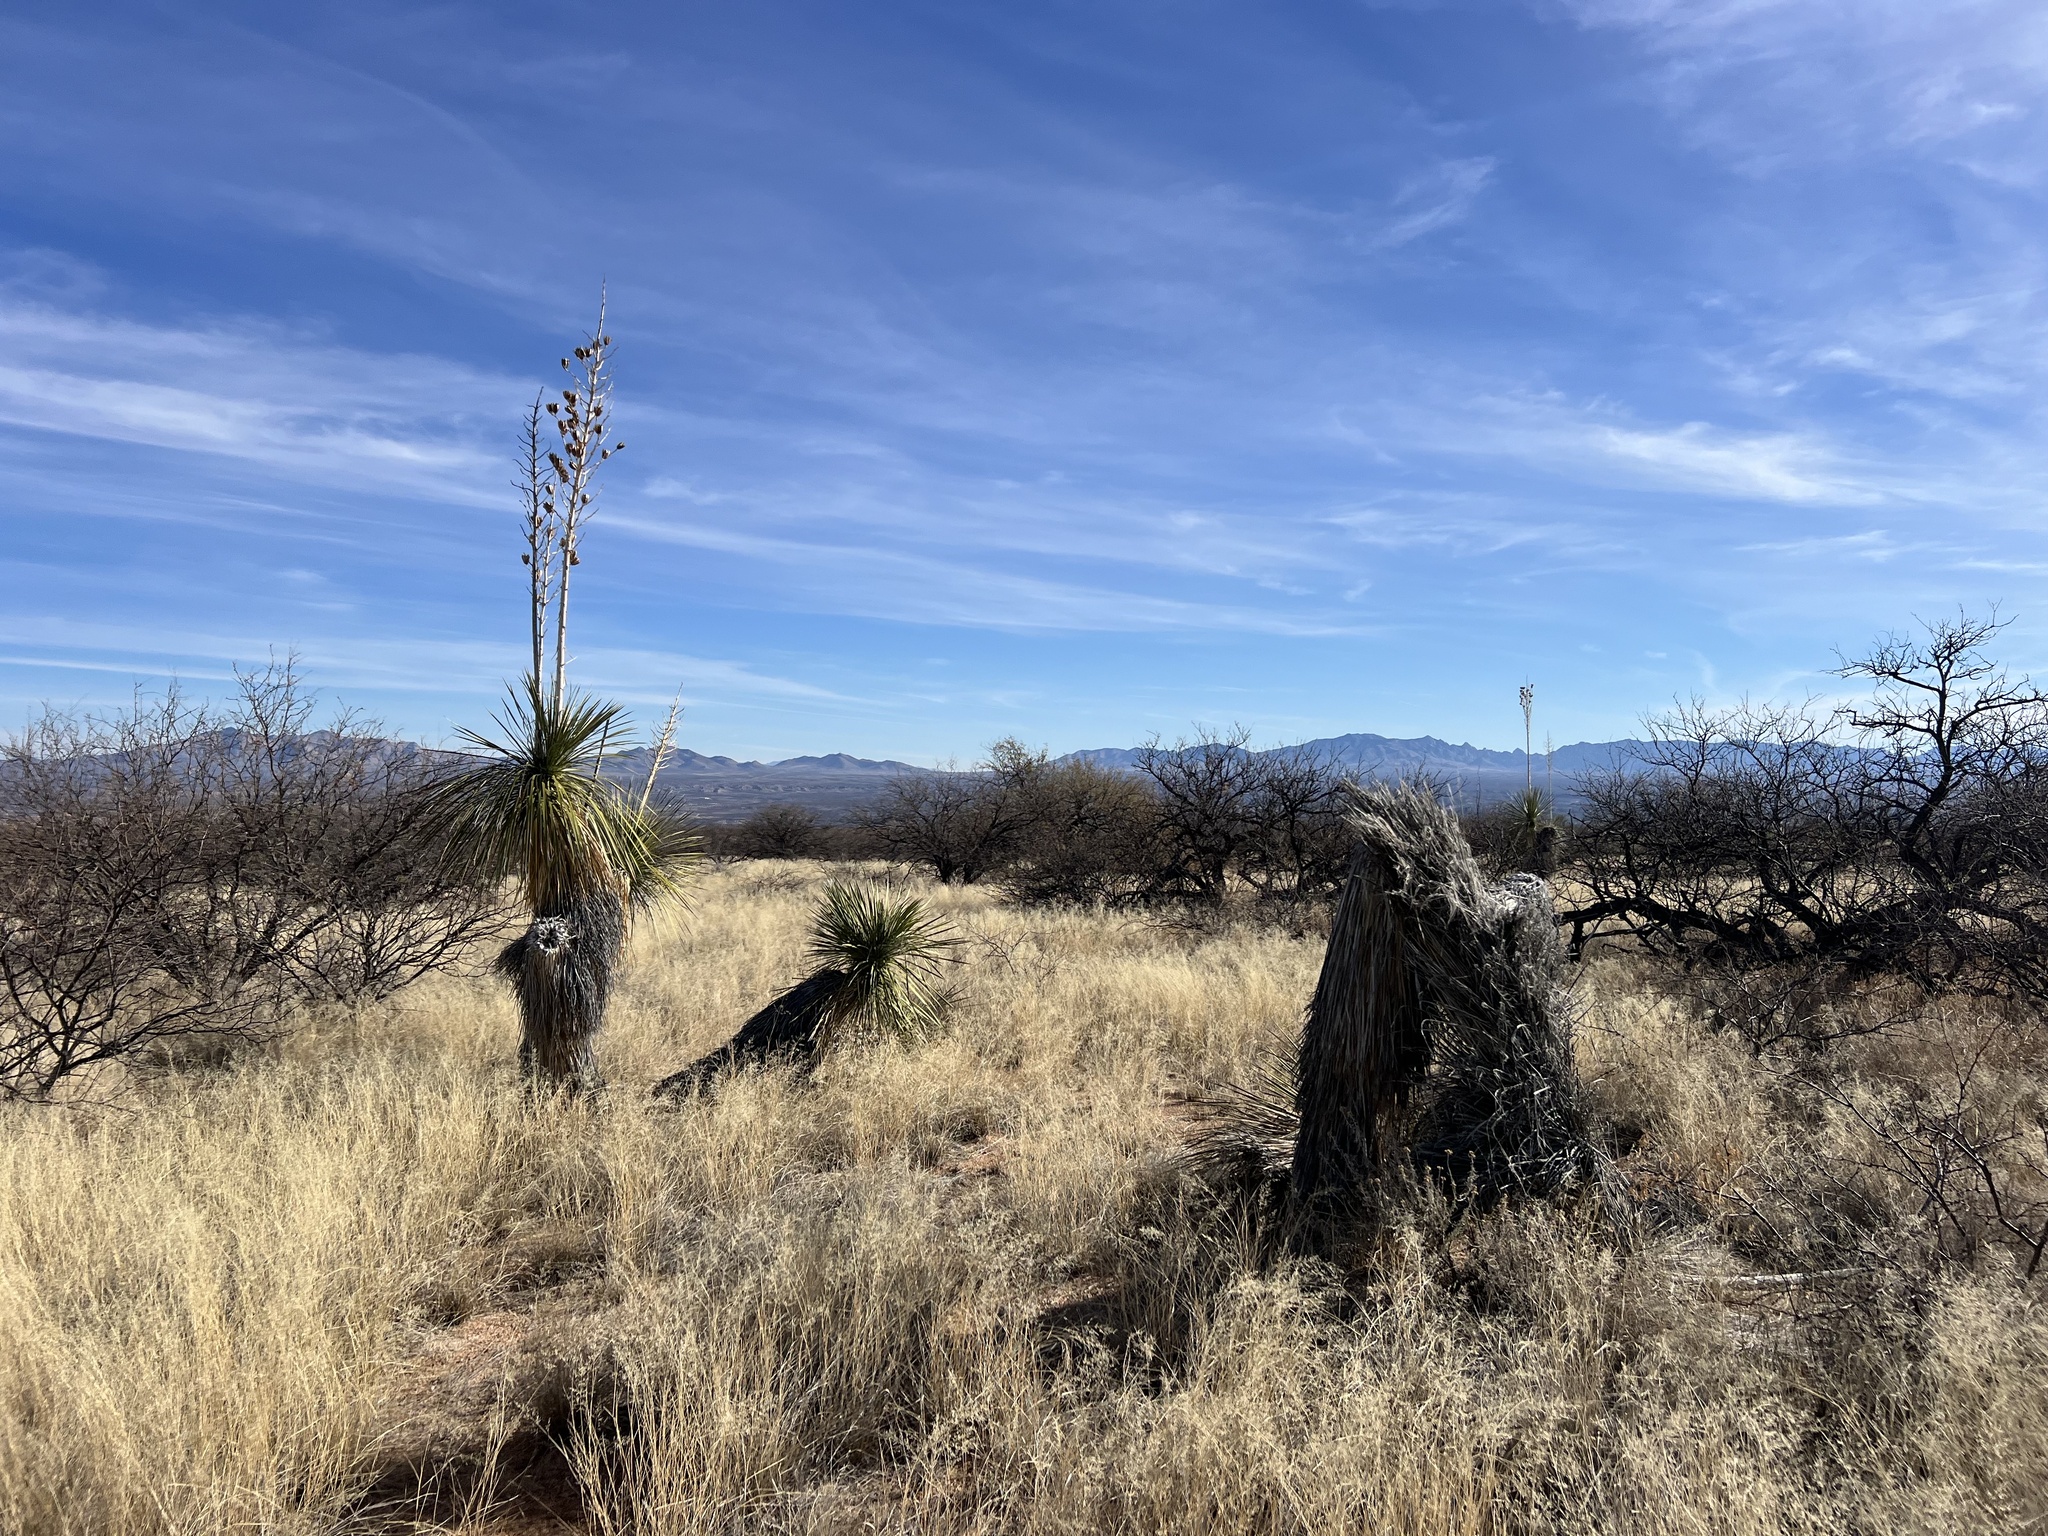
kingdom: Plantae
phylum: Tracheophyta
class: Liliopsida
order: Asparagales
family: Asparagaceae
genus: Yucca
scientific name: Yucca elata
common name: Palmella
